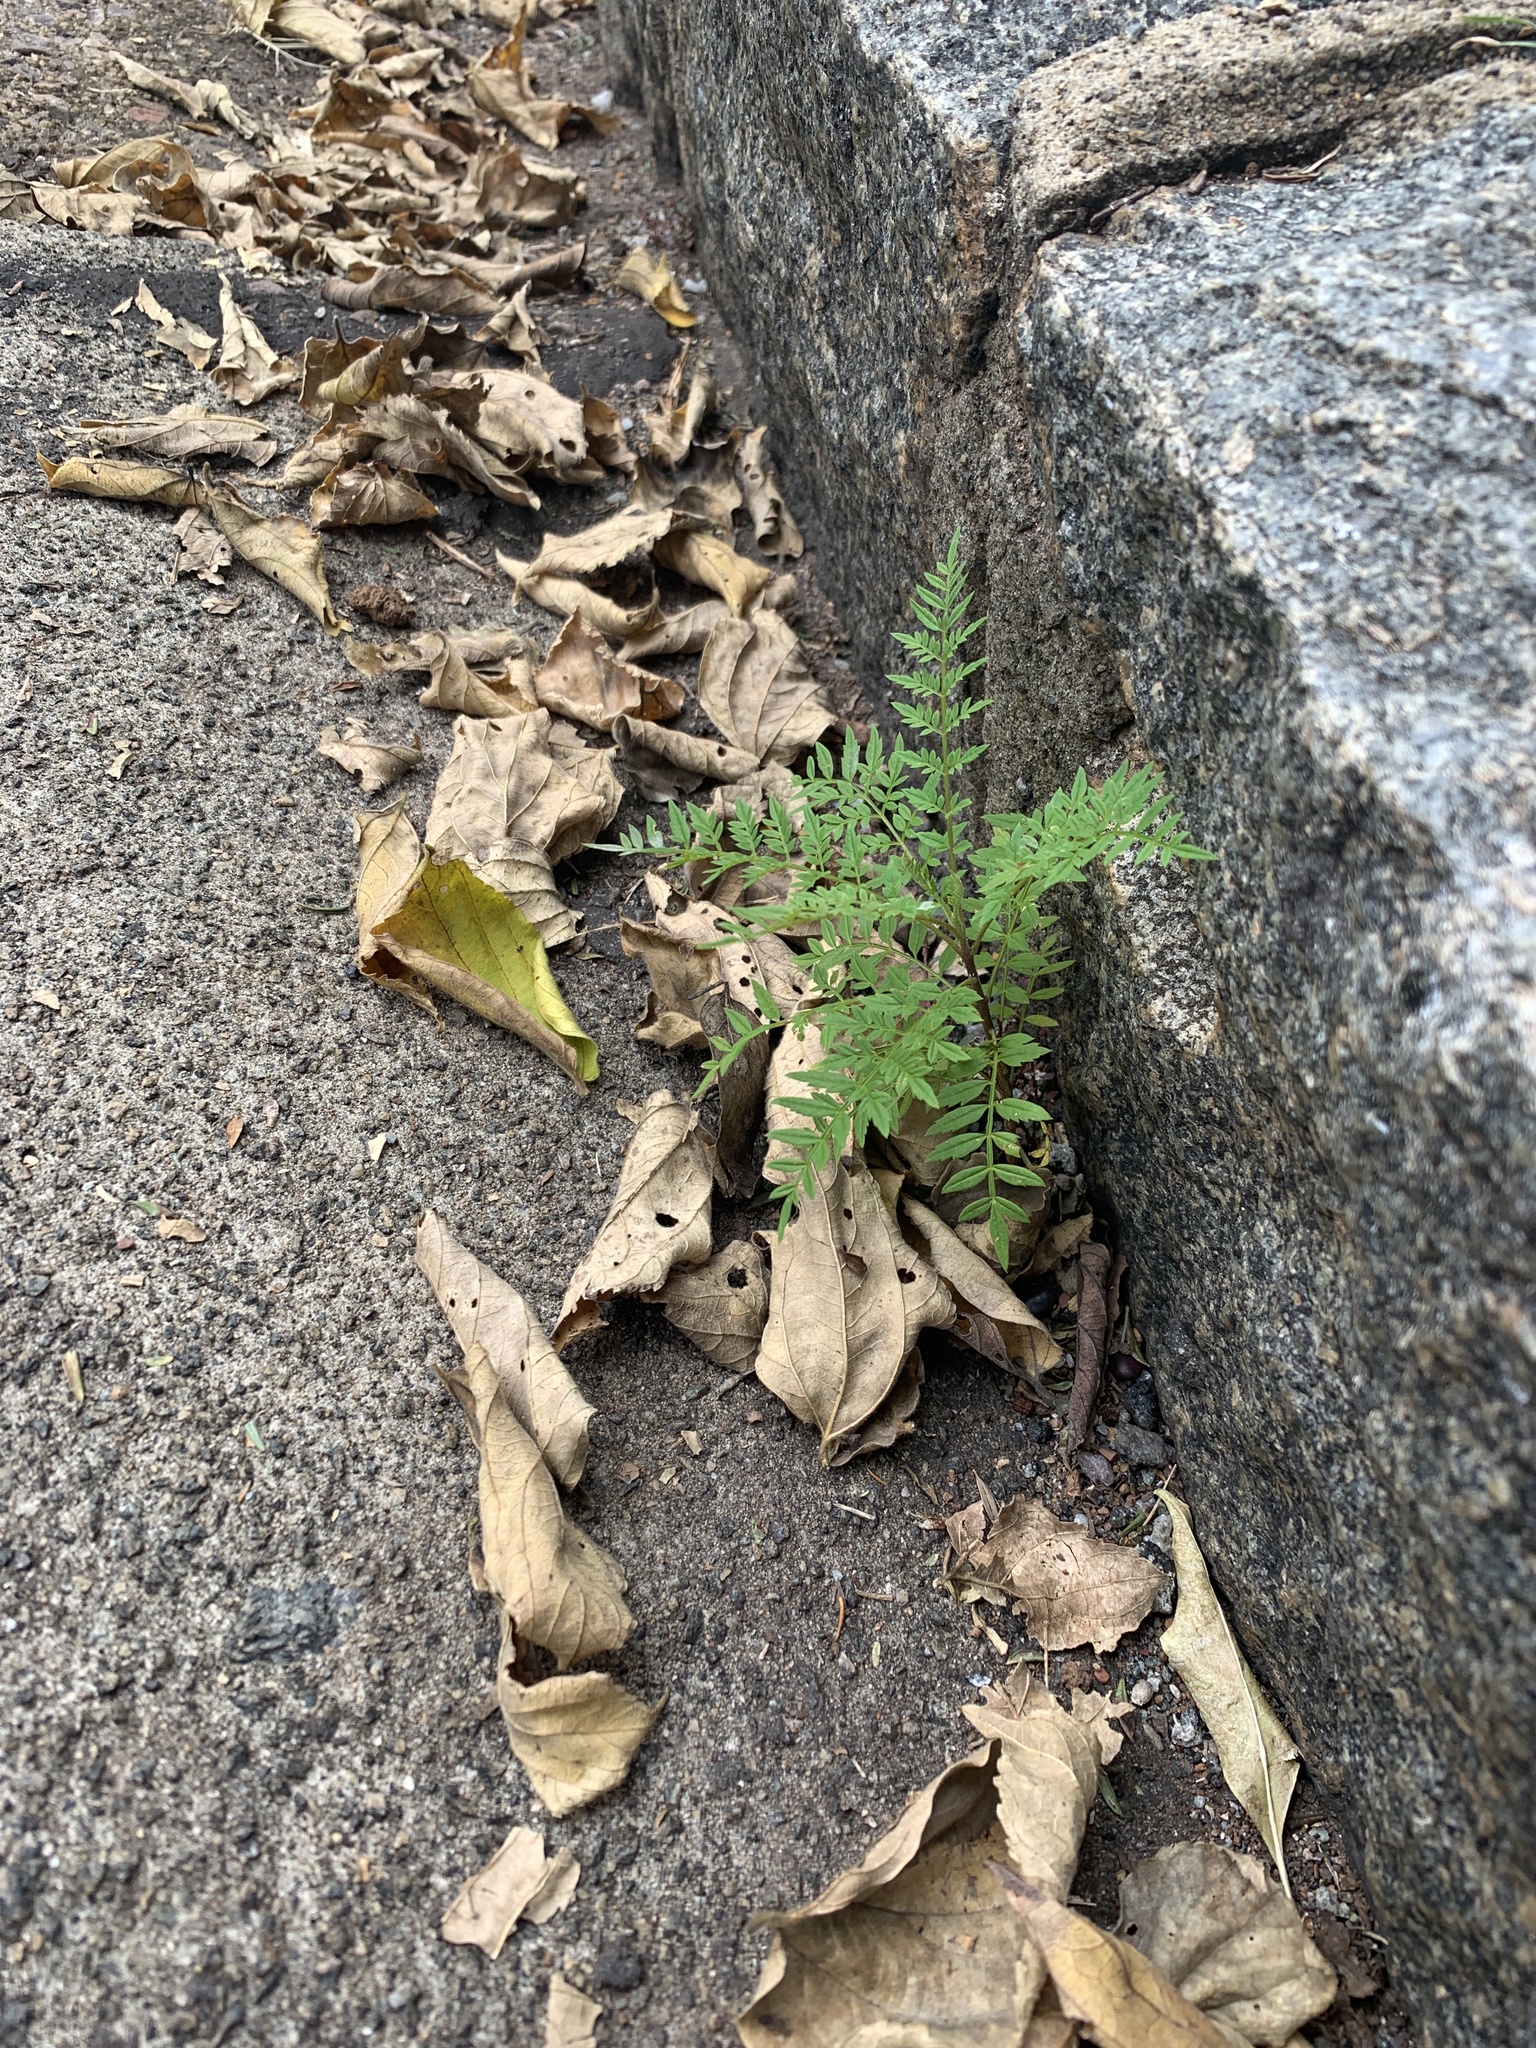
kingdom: Plantae
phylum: Tracheophyta
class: Magnoliopsida
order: Lamiales
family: Bignoniaceae
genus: Jacaranda
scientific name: Jacaranda mimosifolia
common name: Black poui
